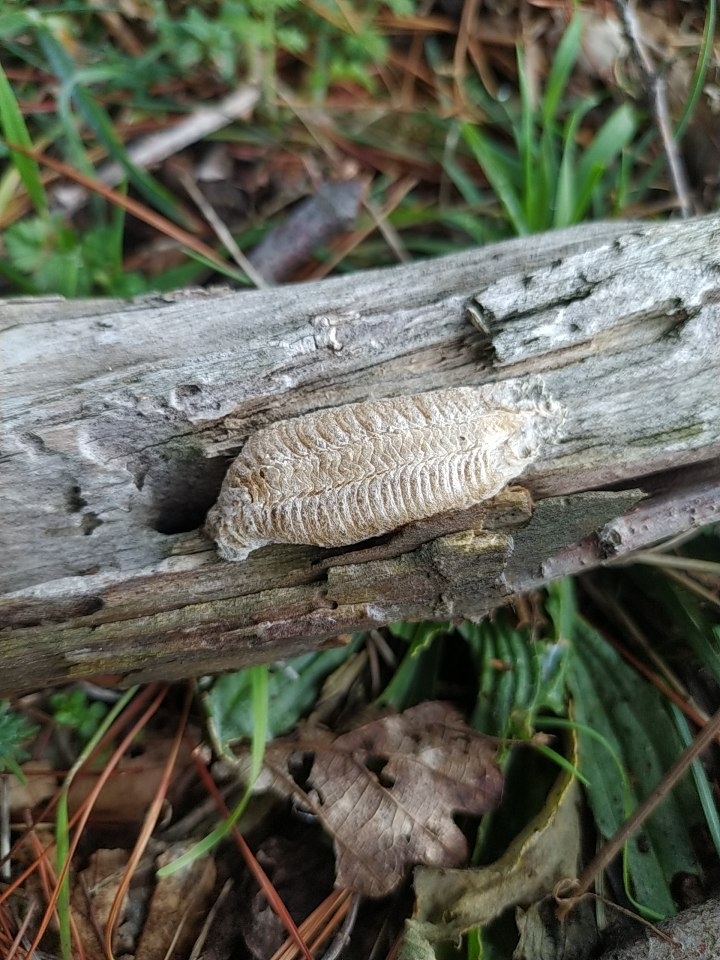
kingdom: Animalia
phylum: Arthropoda
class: Insecta
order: Mantodea
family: Mantidae
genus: Mantis
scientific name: Mantis religiosa
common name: Praying mantis
